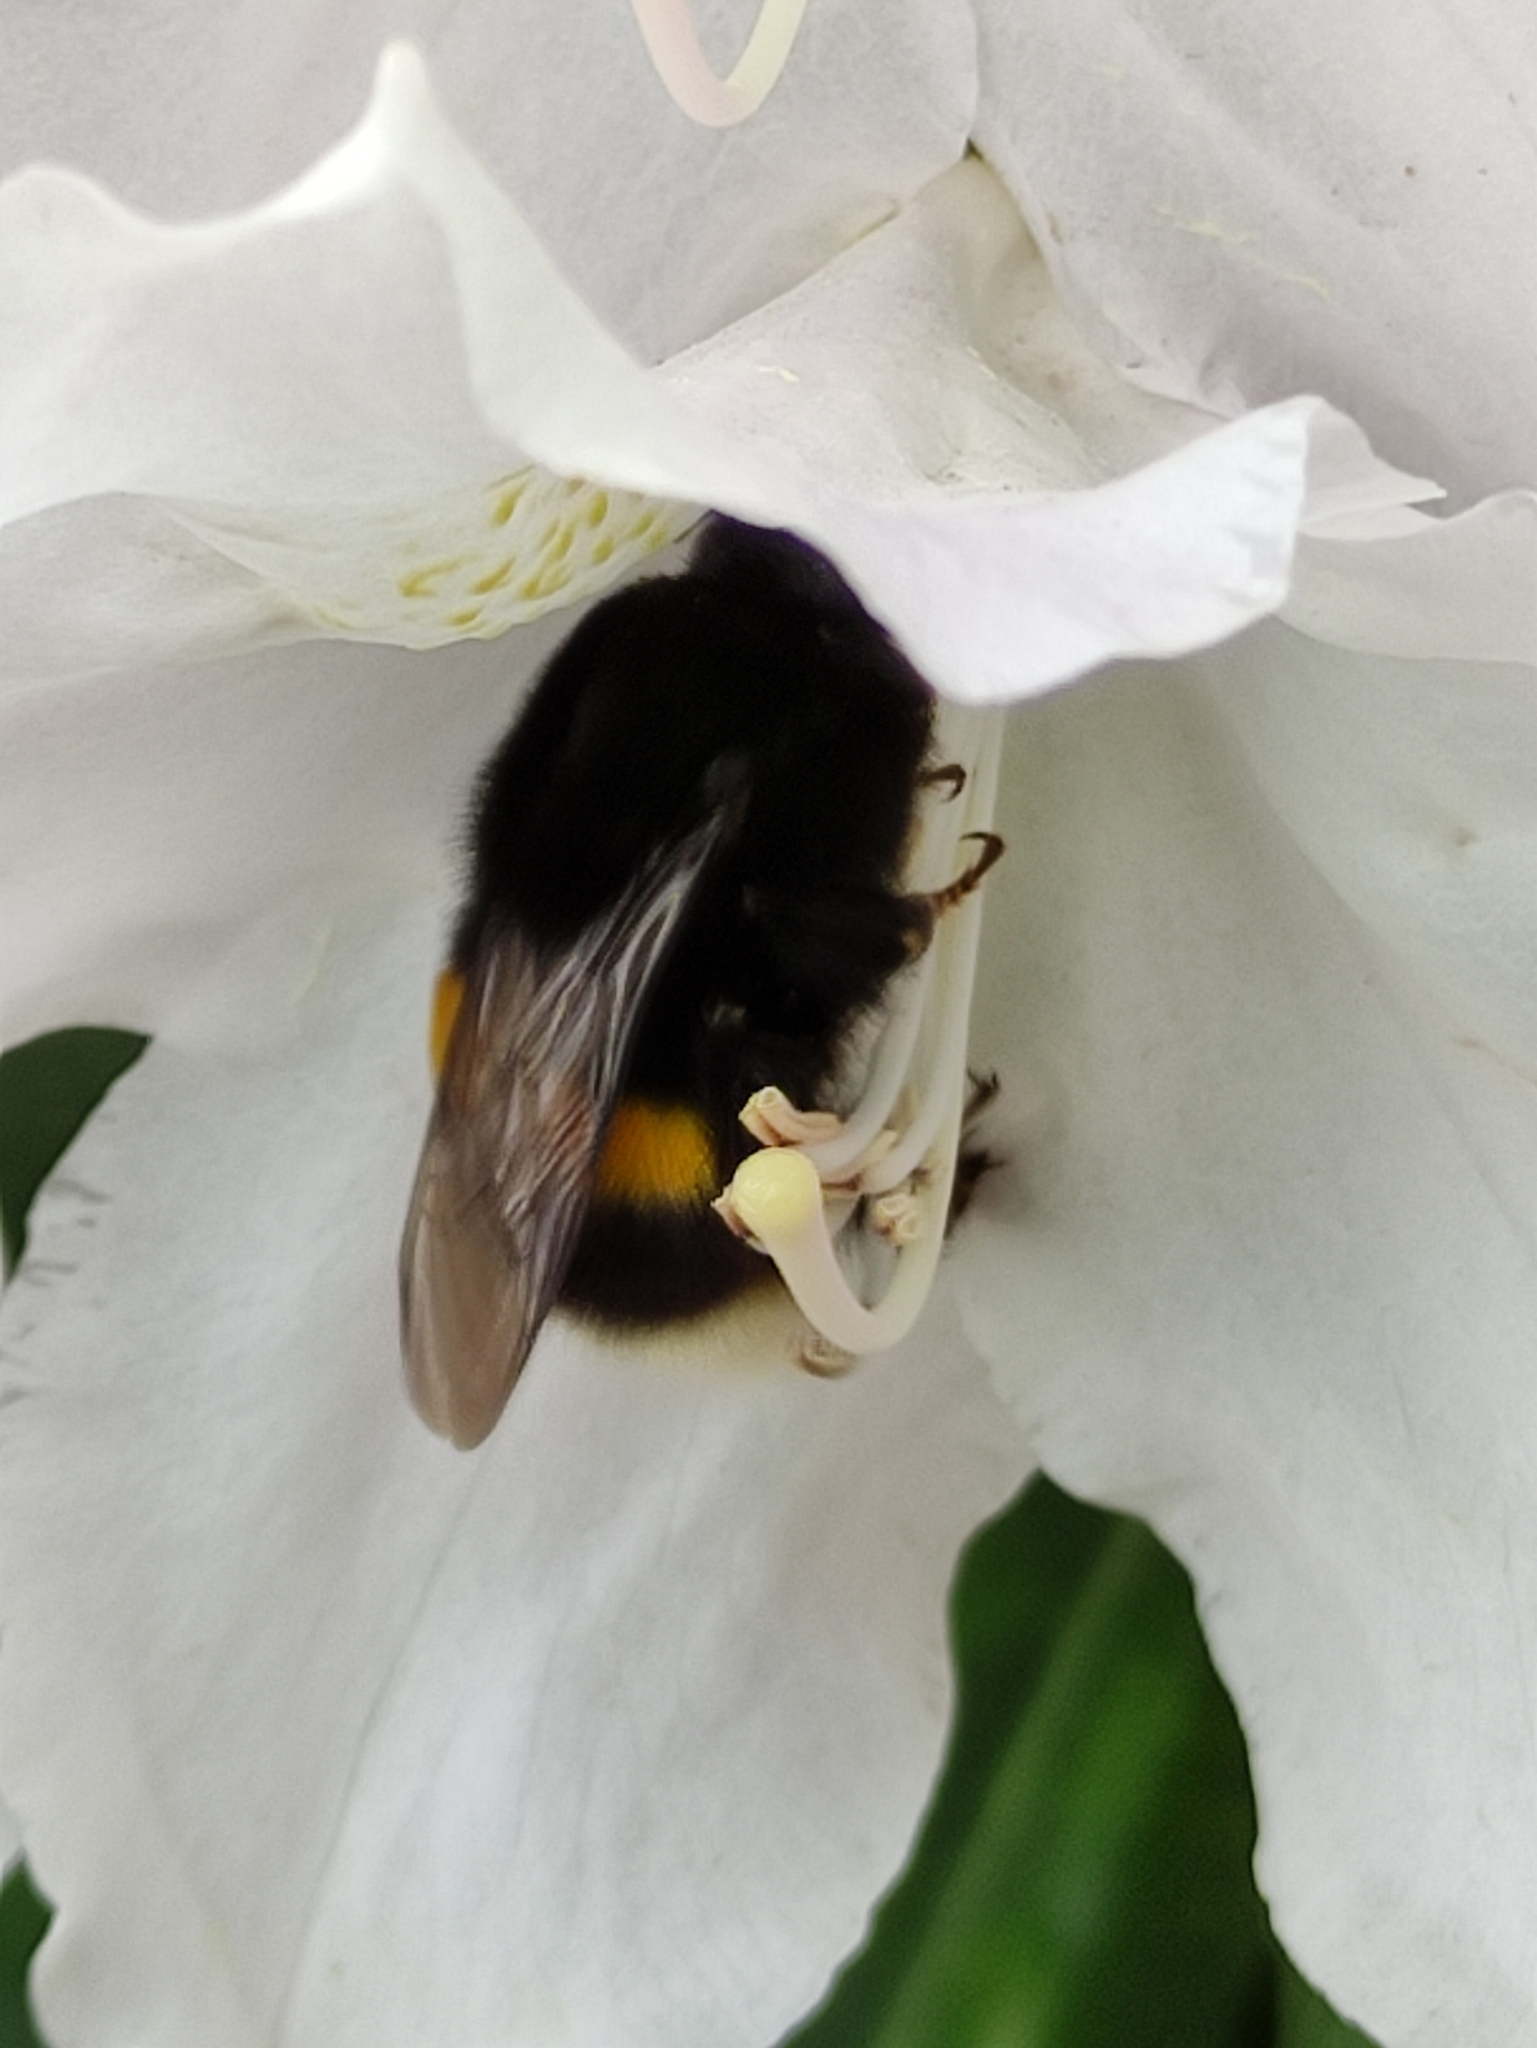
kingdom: Animalia
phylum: Arthropoda
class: Insecta
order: Hymenoptera
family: Apidae
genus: Bombus
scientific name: Bombus
